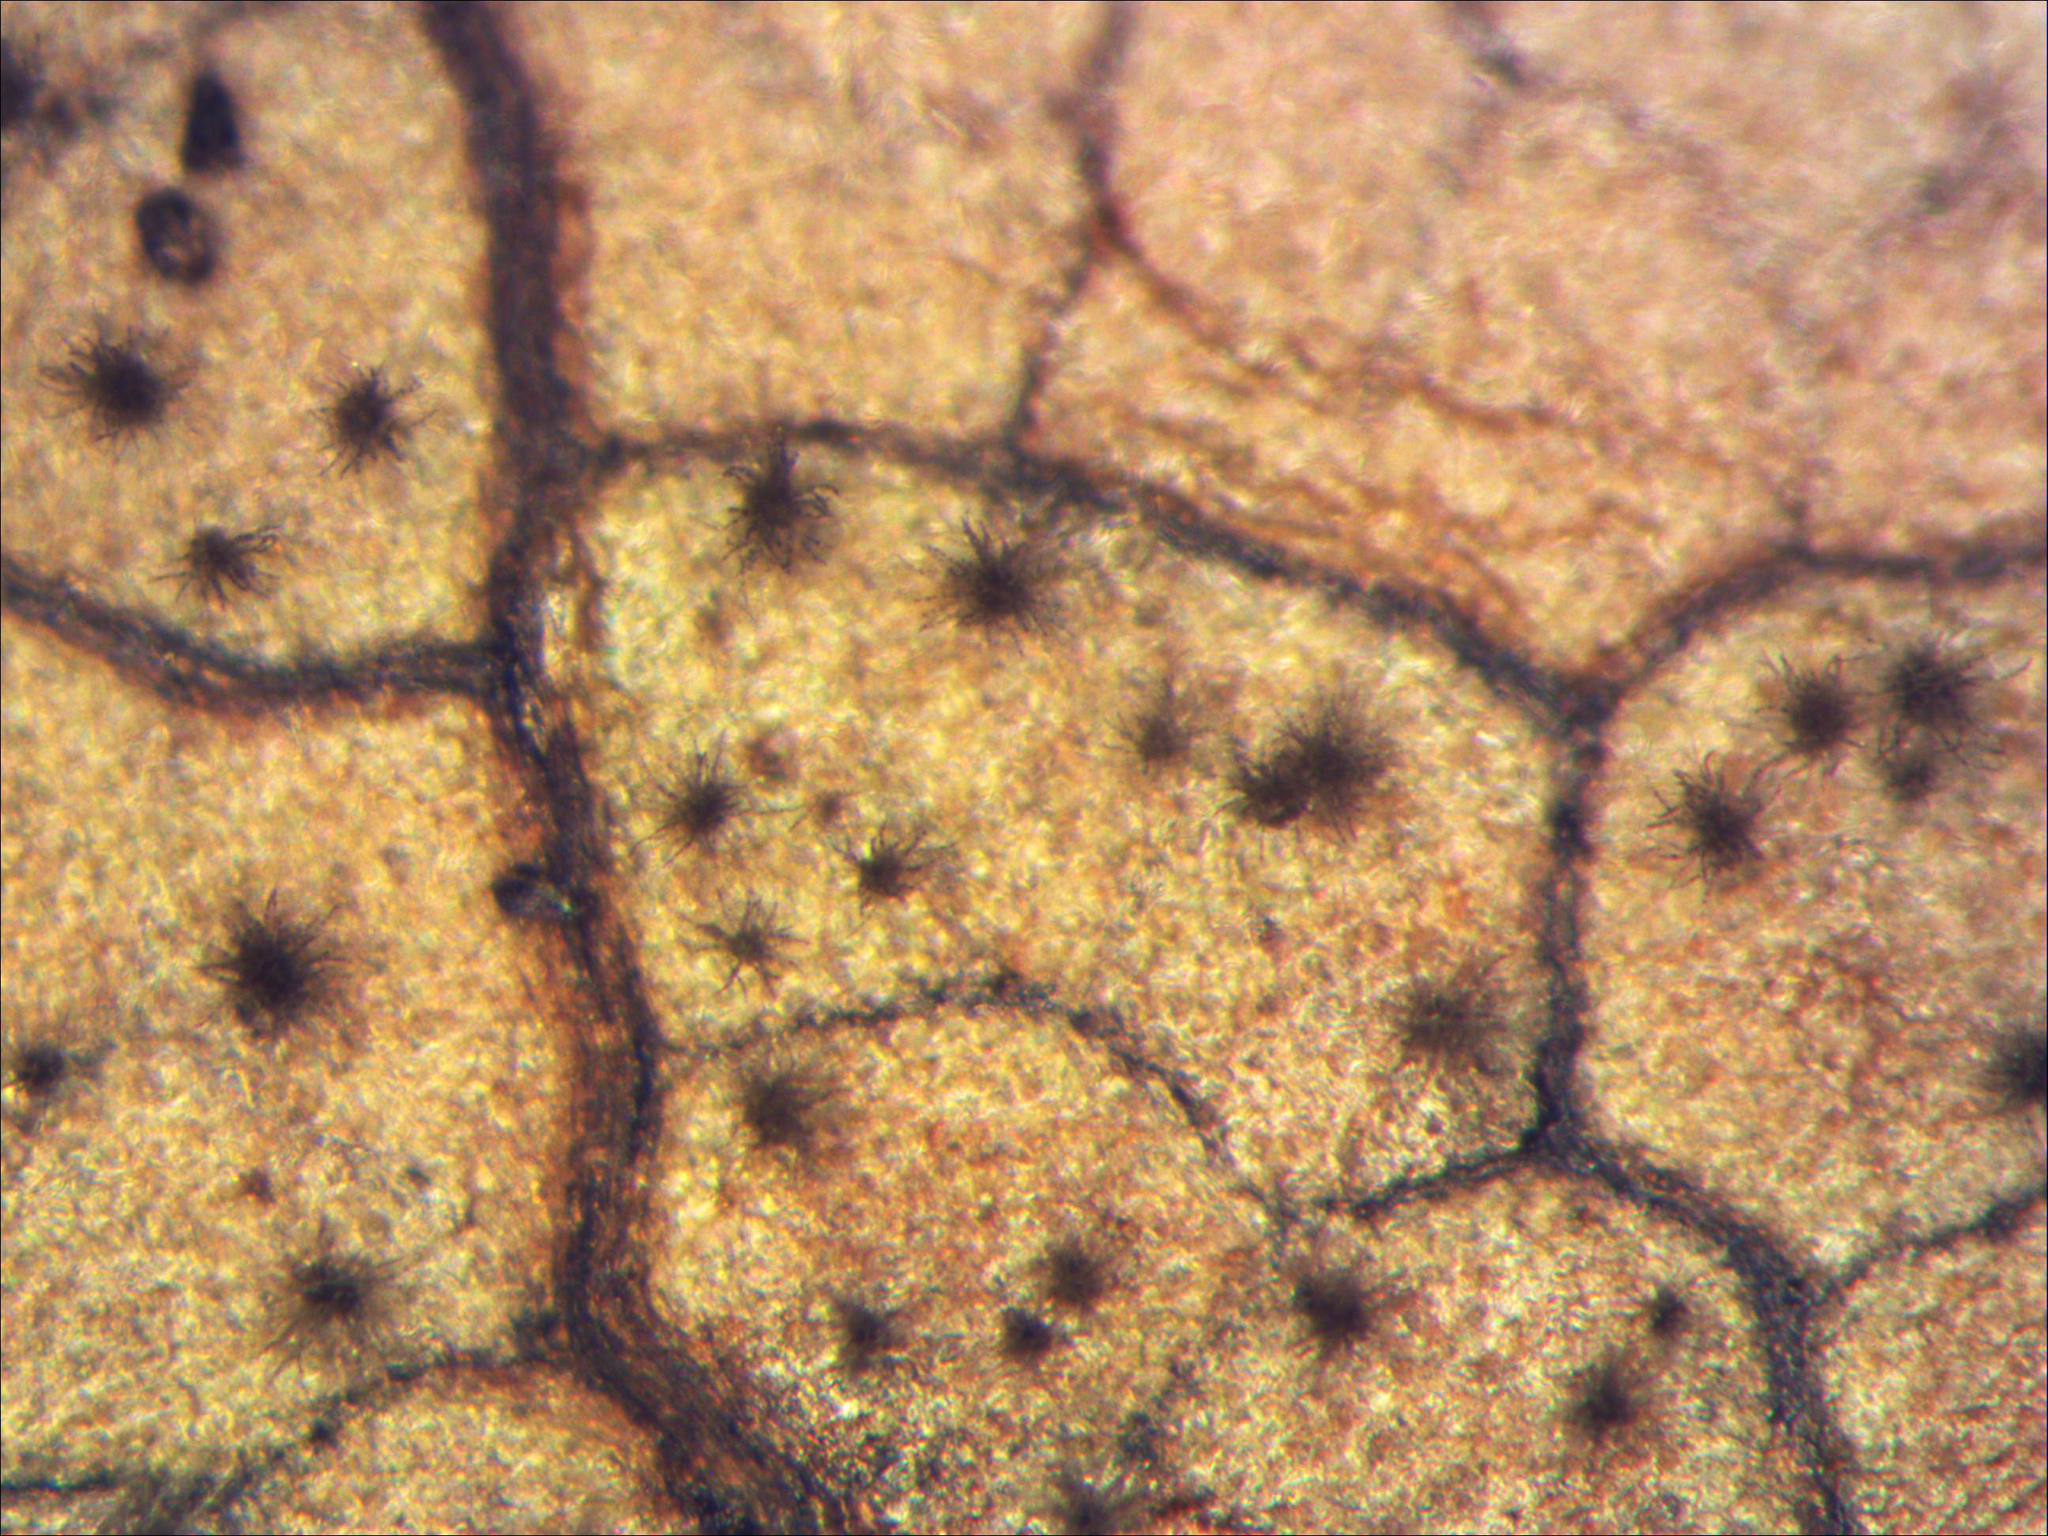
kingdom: Fungi
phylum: Ascomycota
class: Dothideomycetes
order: Mycosphaerellales
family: Mycosphaerellaceae
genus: Pseudocercospora
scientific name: Pseudocercospora aristoteliae
